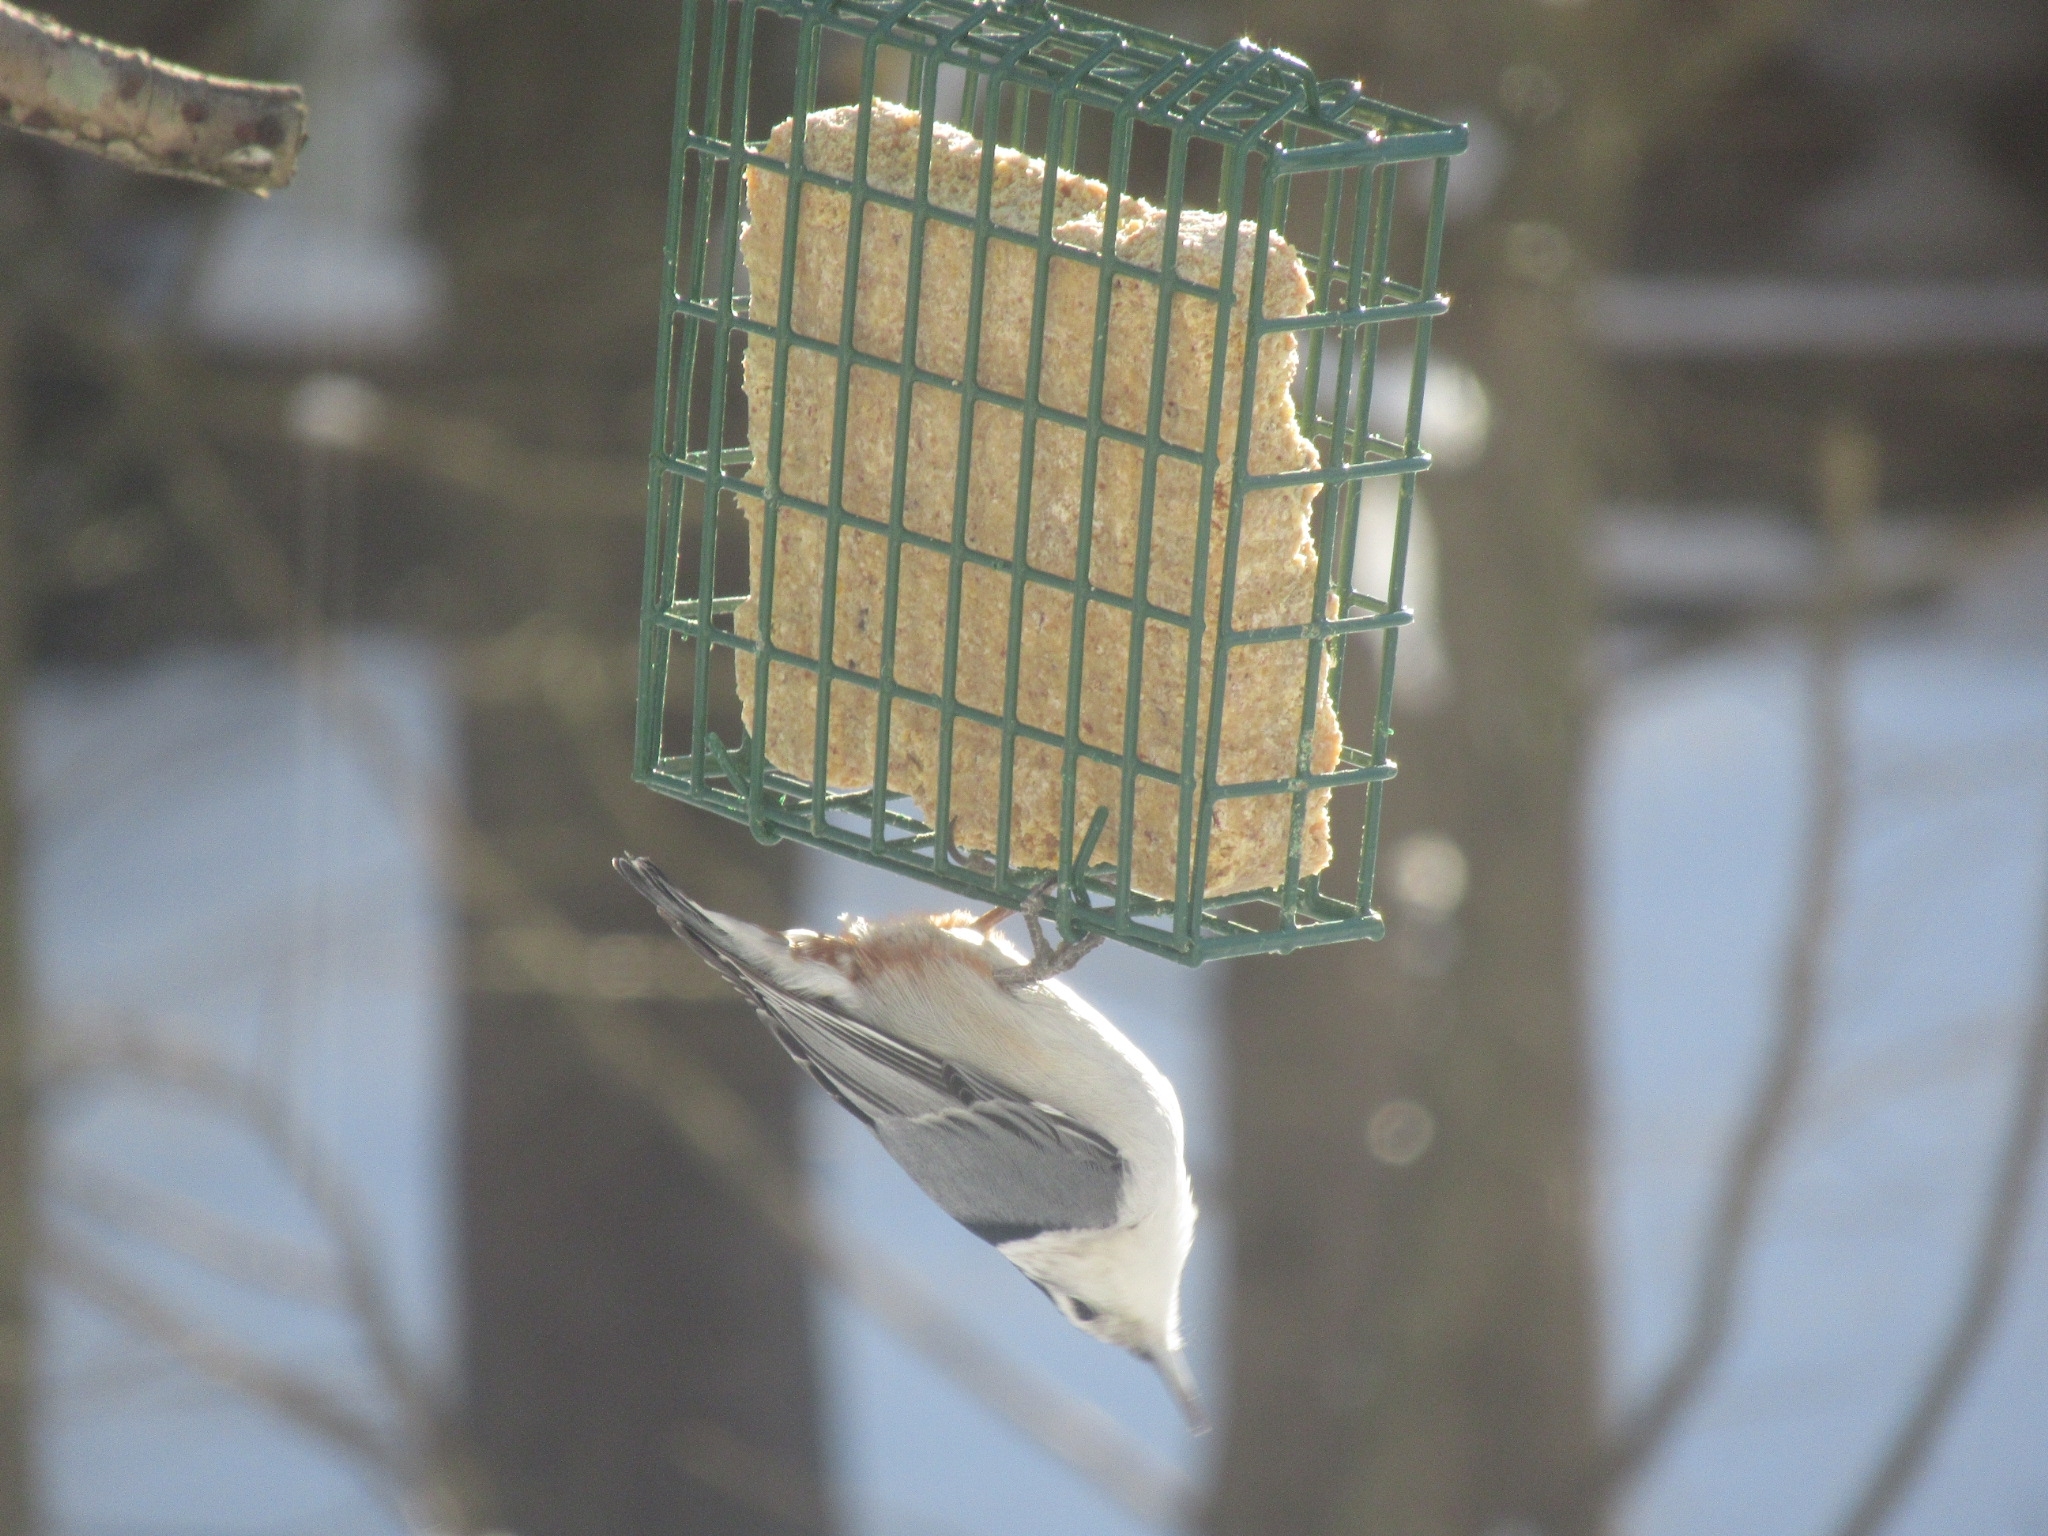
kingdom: Animalia
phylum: Chordata
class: Aves
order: Passeriformes
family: Sittidae
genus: Sitta
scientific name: Sitta carolinensis
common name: White-breasted nuthatch
